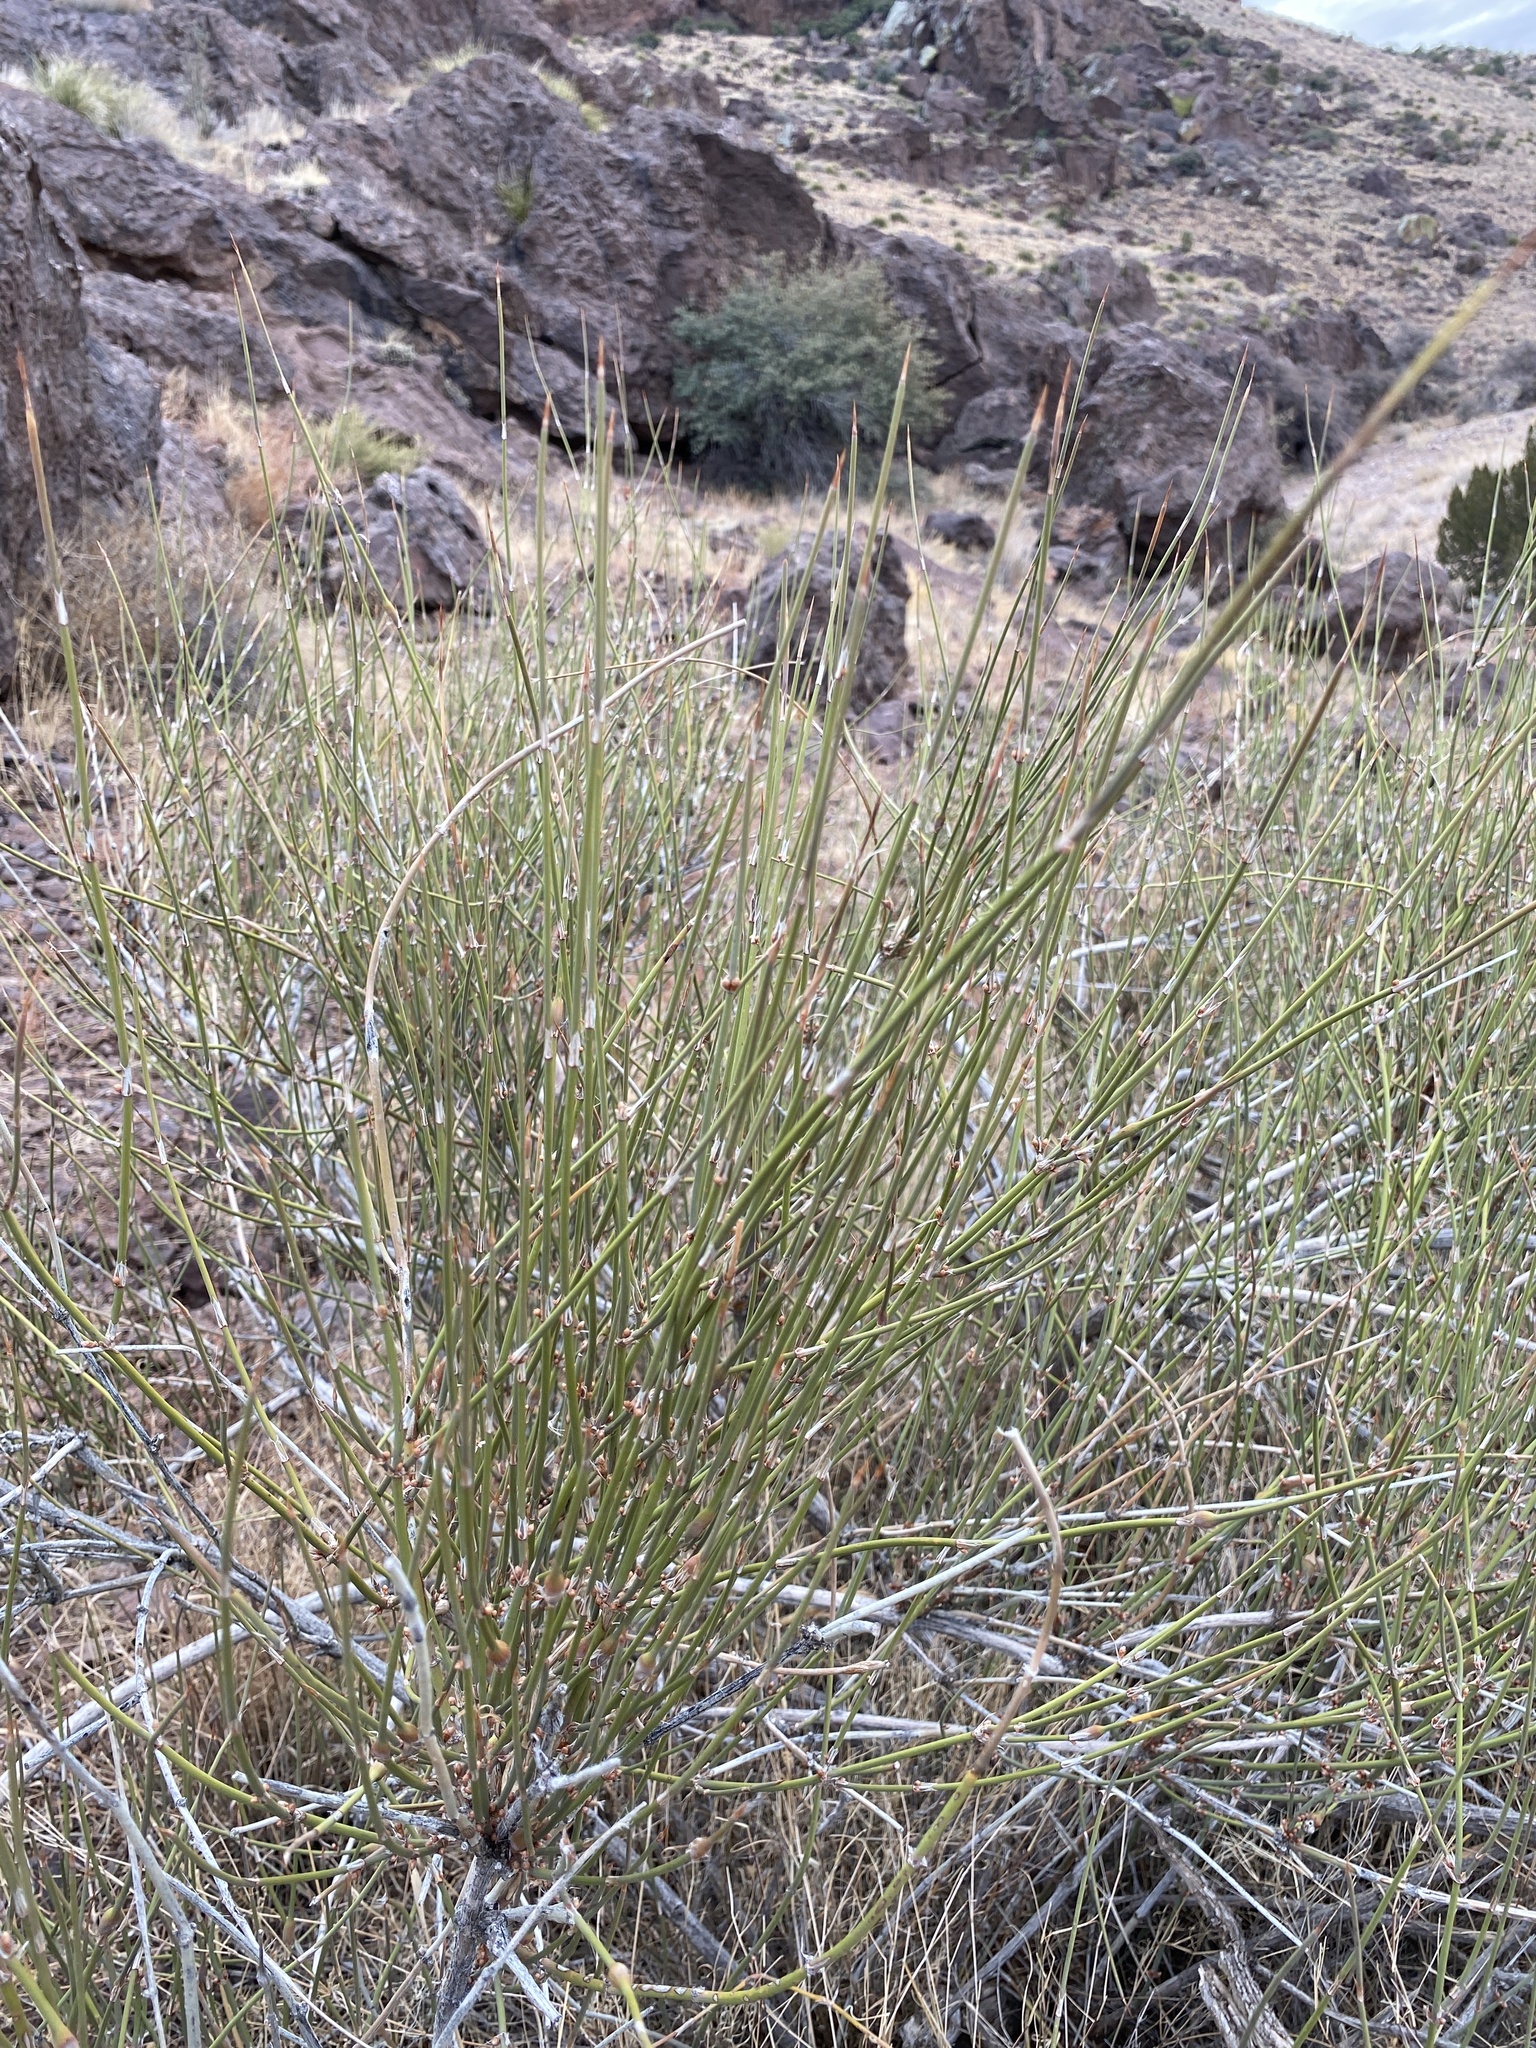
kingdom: Plantae
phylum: Tracheophyta
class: Gnetopsida
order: Ephedrales
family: Ephedraceae
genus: Ephedra
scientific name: Ephedra trifurca
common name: Mexican-tea
